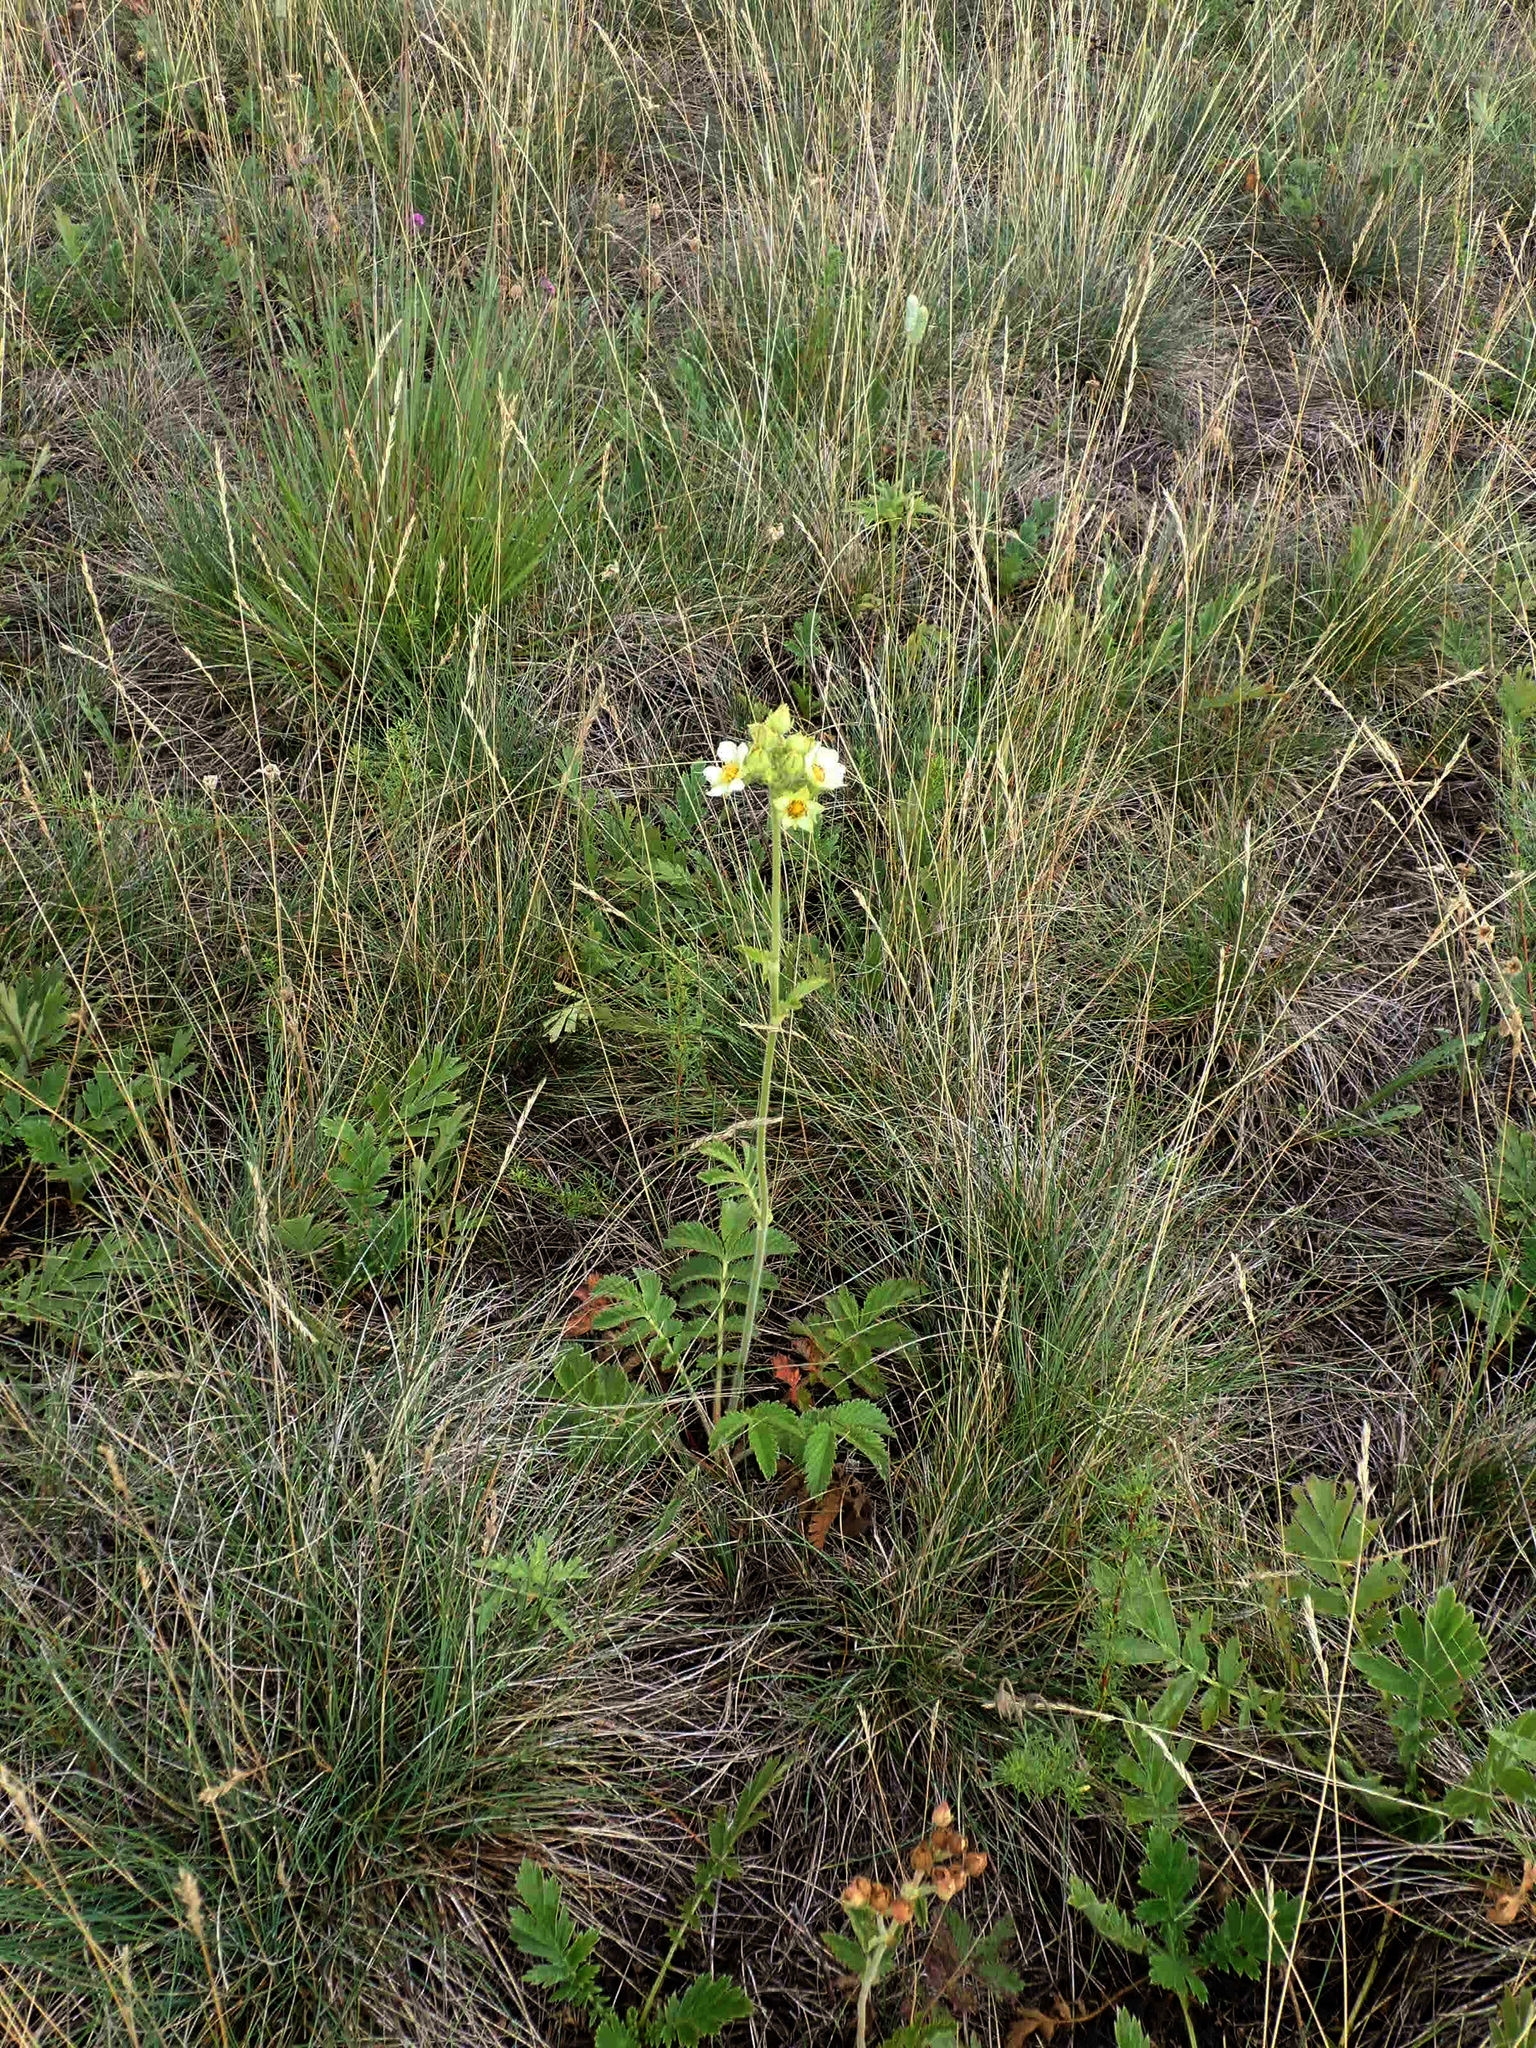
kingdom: Plantae
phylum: Tracheophyta
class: Magnoliopsida
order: Rosales
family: Rosaceae
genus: Drymocallis
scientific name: Drymocallis arguta
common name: Tall cinquefoil
